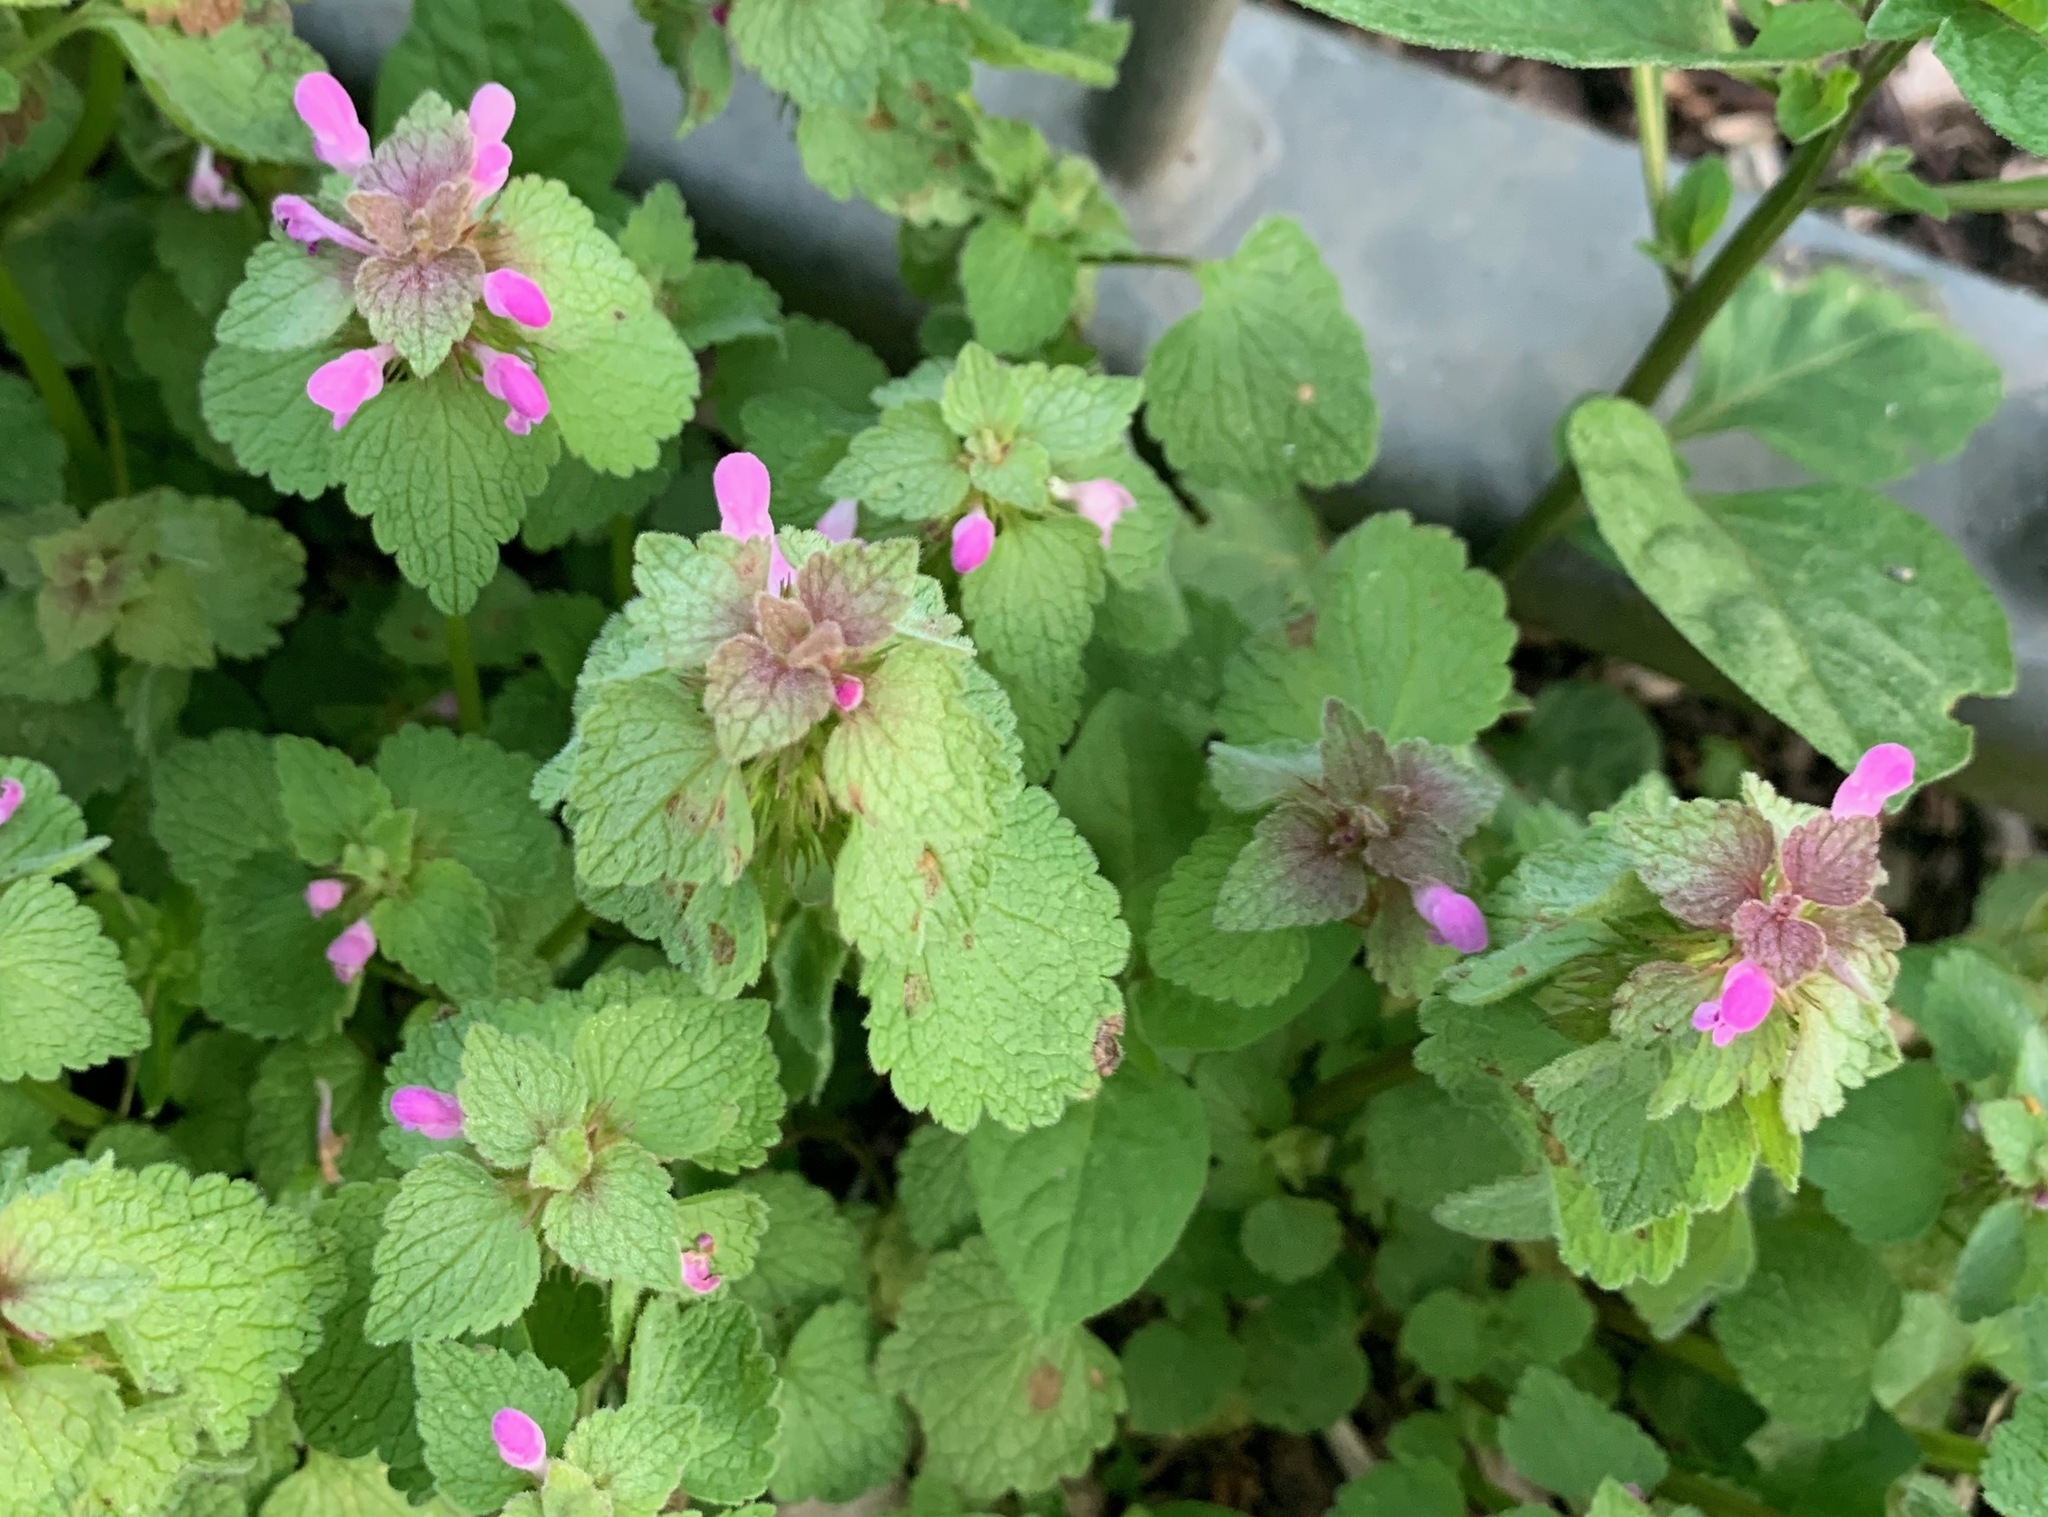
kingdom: Plantae
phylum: Tracheophyta
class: Magnoliopsida
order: Lamiales
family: Lamiaceae
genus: Lamium
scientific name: Lamium purpureum
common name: Red dead-nettle
